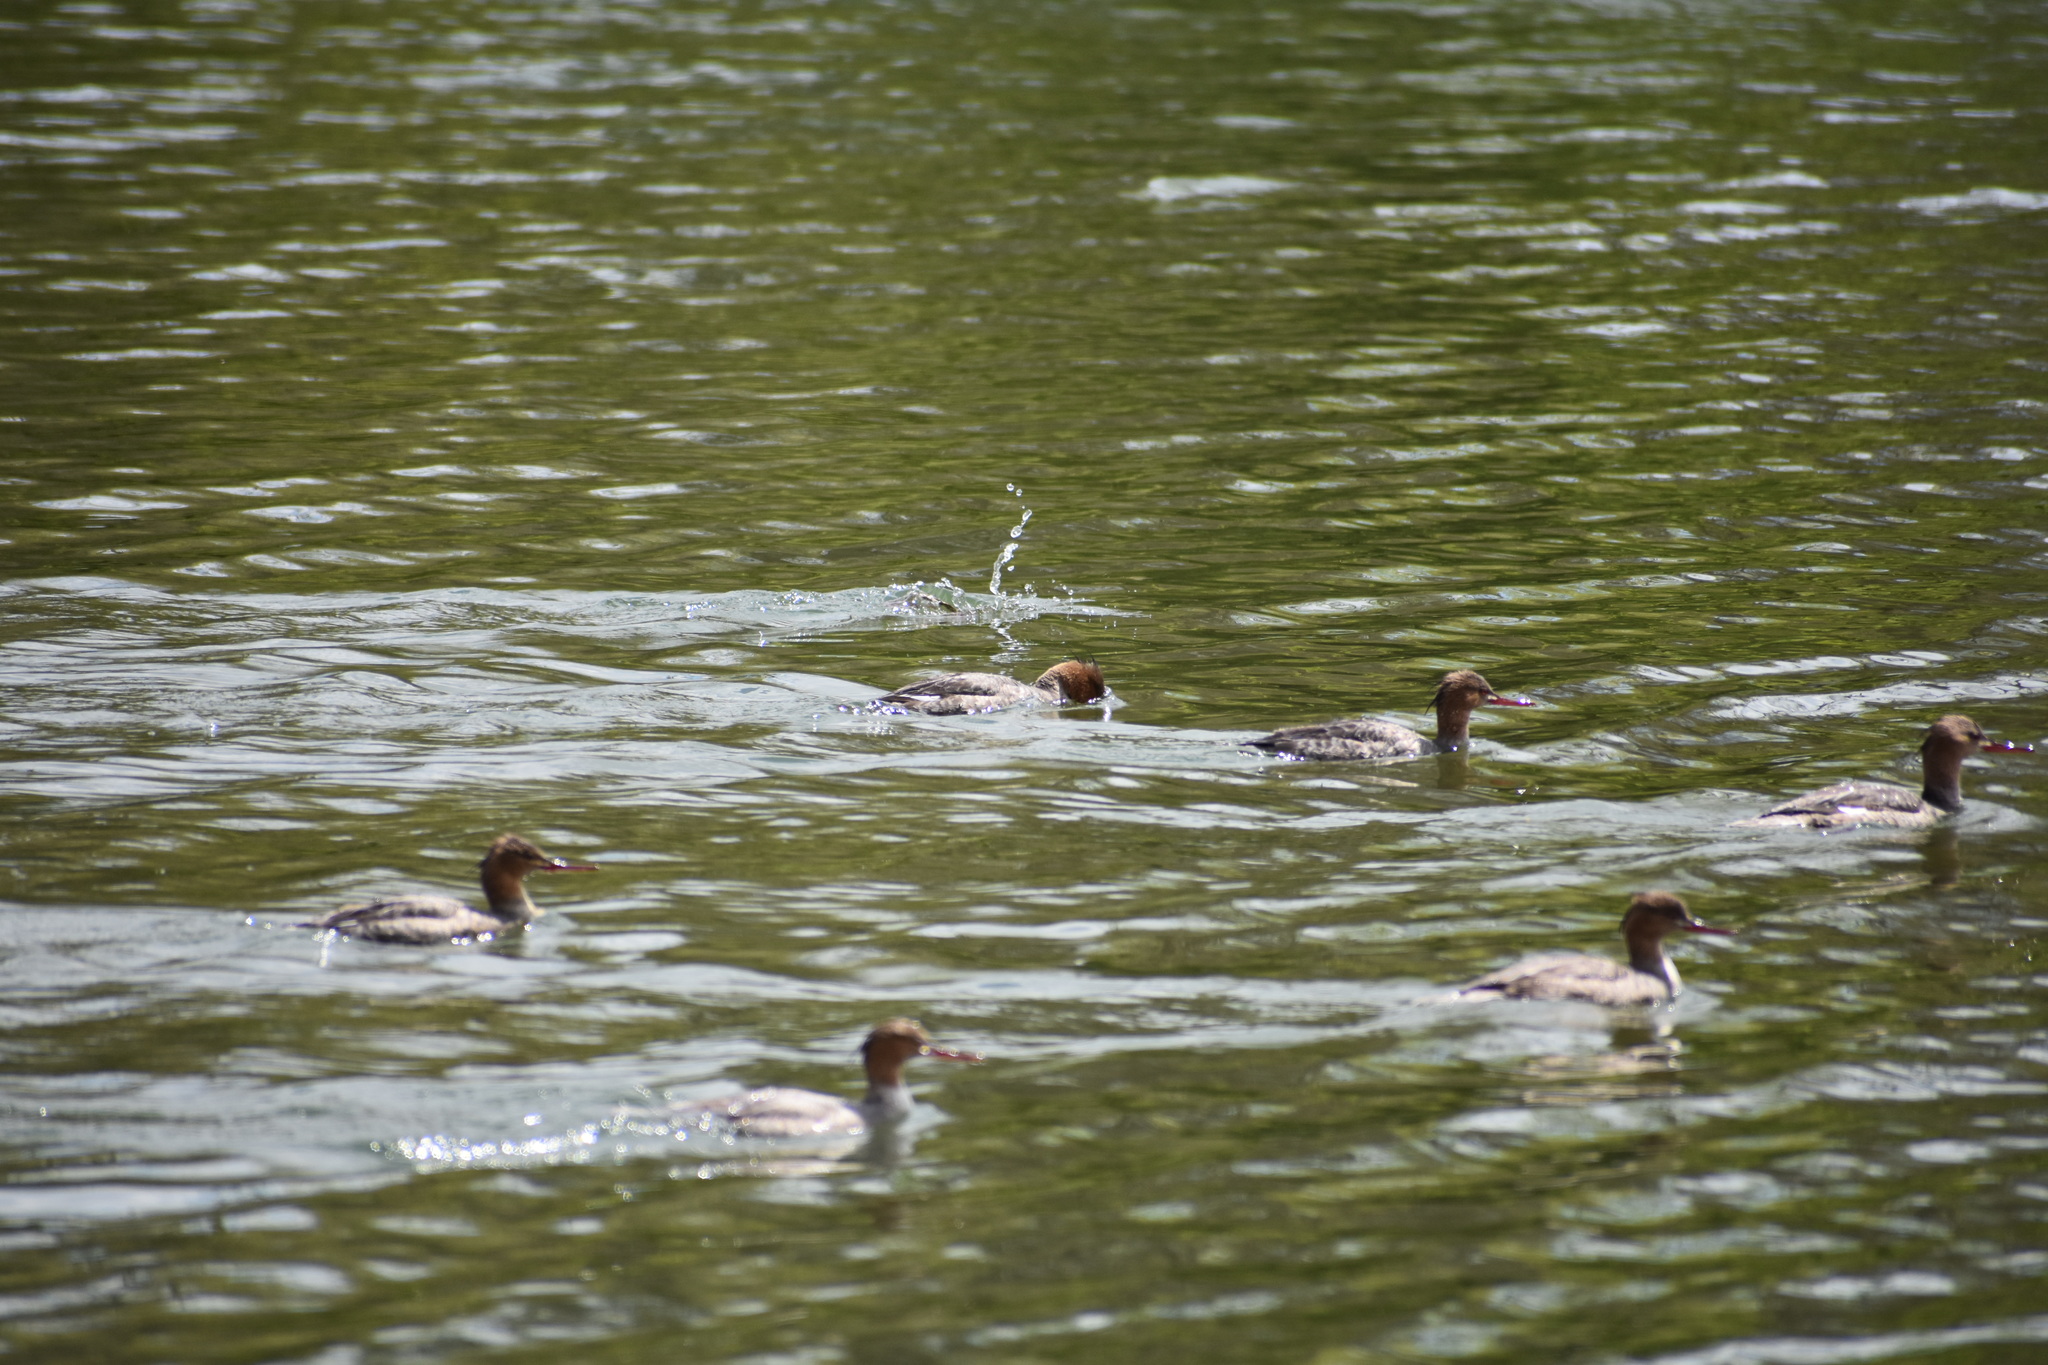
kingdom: Animalia
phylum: Chordata
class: Aves
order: Anseriformes
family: Anatidae
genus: Mergus
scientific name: Mergus serrator
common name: Red-breasted merganser
